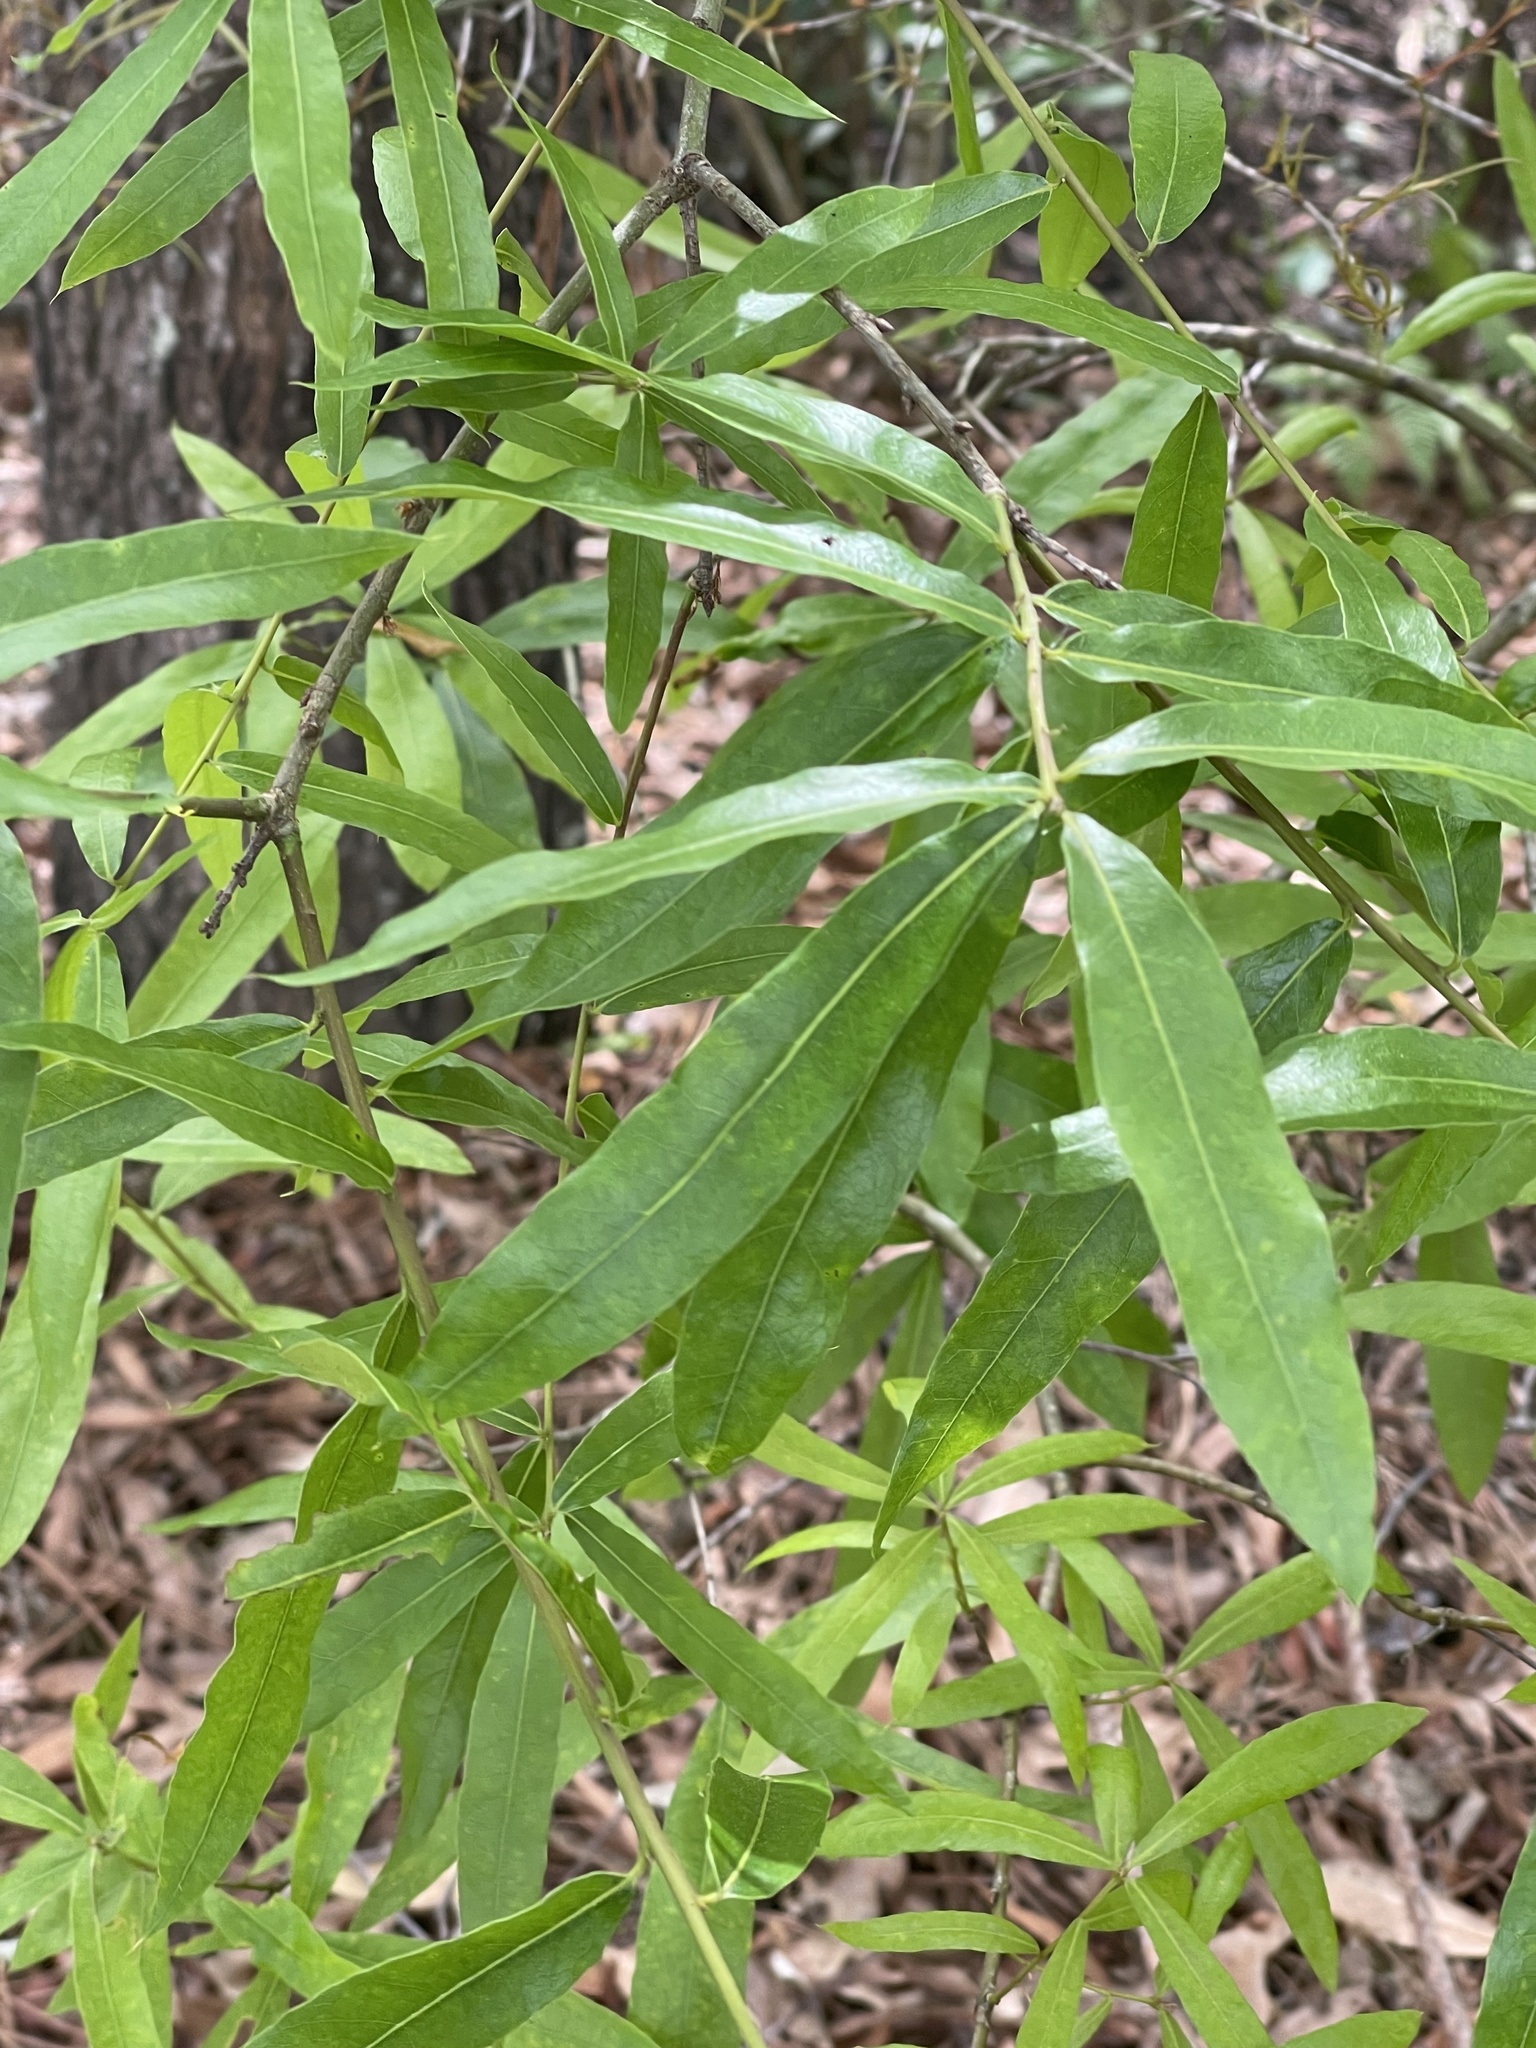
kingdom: Plantae
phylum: Tracheophyta
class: Magnoliopsida
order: Fagales
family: Fagaceae
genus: Quercus
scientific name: Quercus phellos
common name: Willow oak
